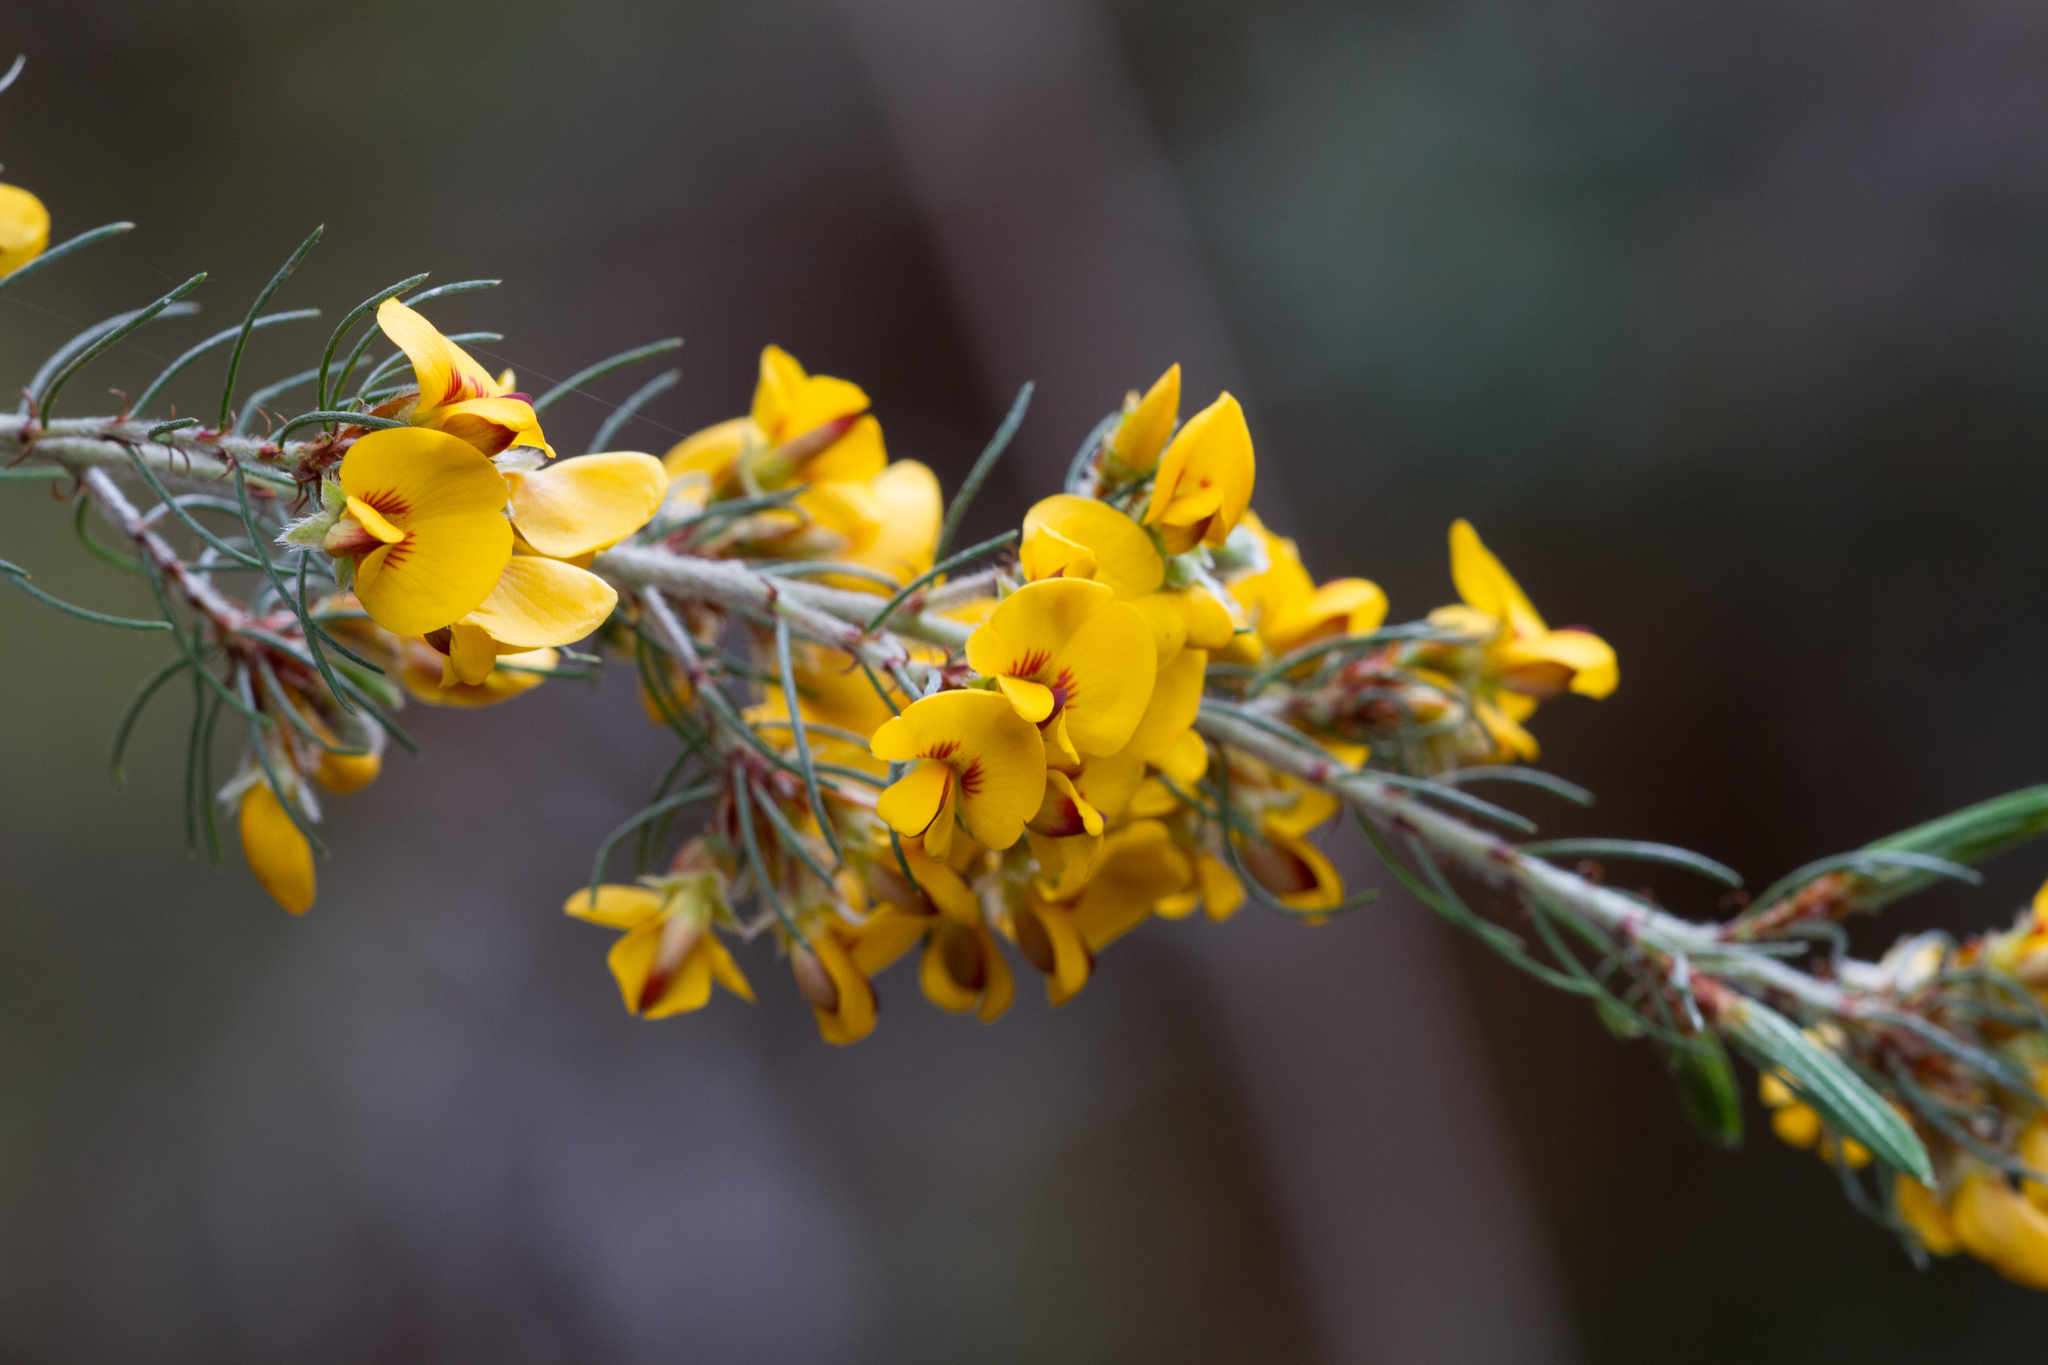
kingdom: Plantae
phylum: Tracheophyta
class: Magnoliopsida
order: Fabales
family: Fabaceae
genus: Pultenaea
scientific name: Pultenaea mollis
